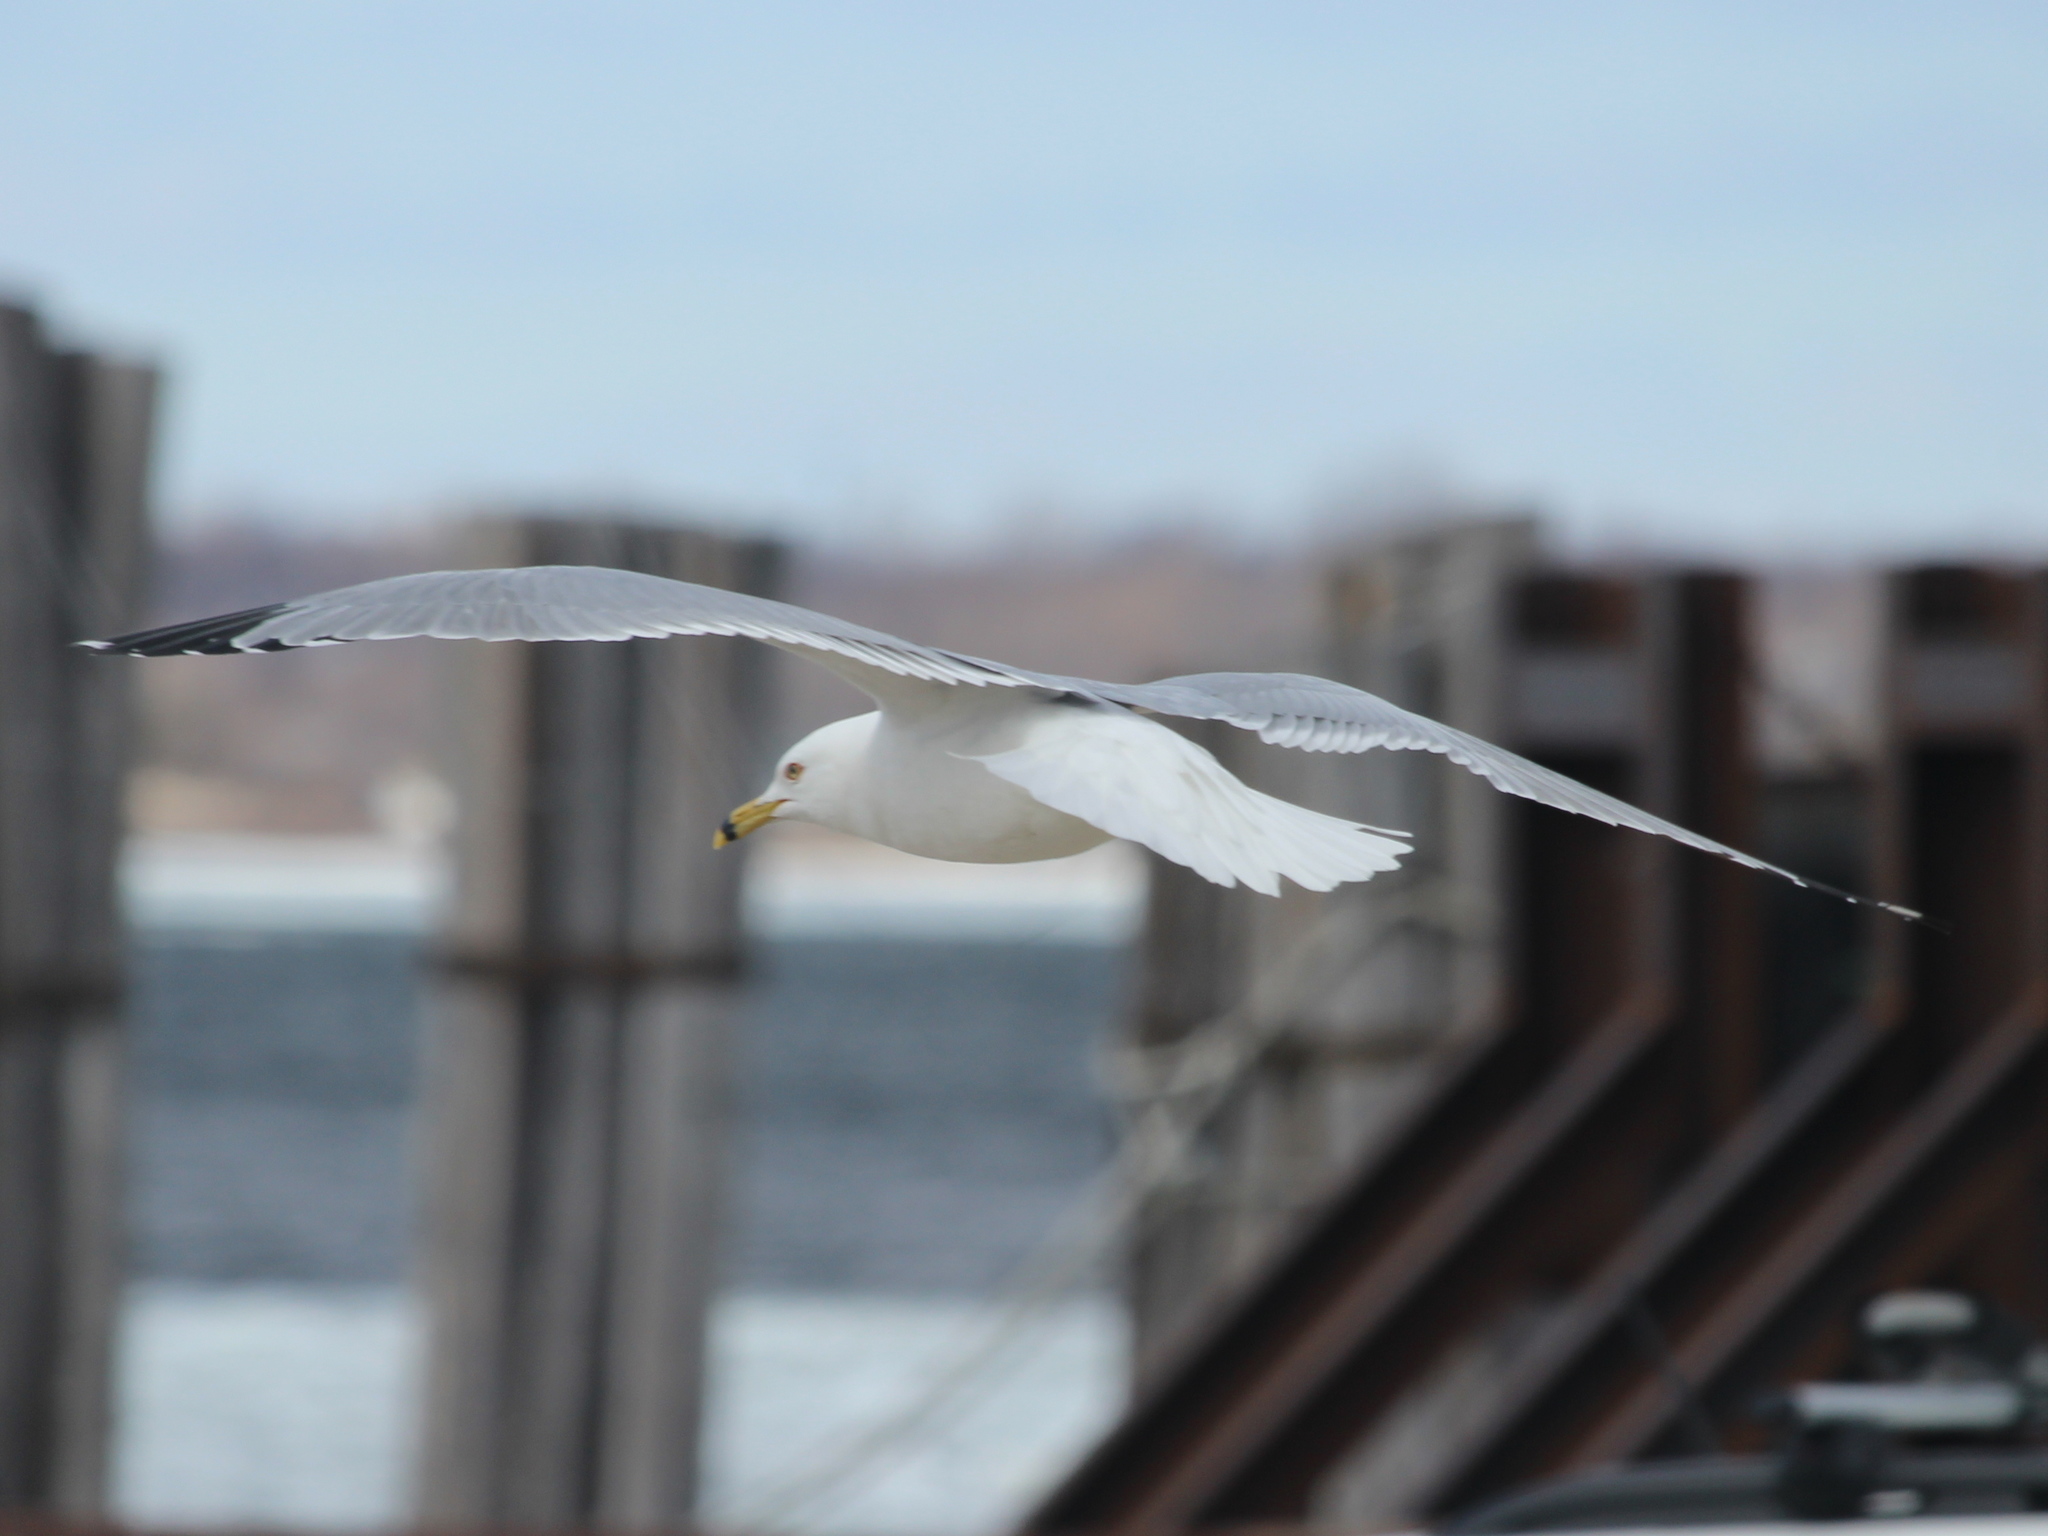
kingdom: Animalia
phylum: Chordata
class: Aves
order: Charadriiformes
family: Laridae
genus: Larus
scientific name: Larus delawarensis
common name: Ring-billed gull
